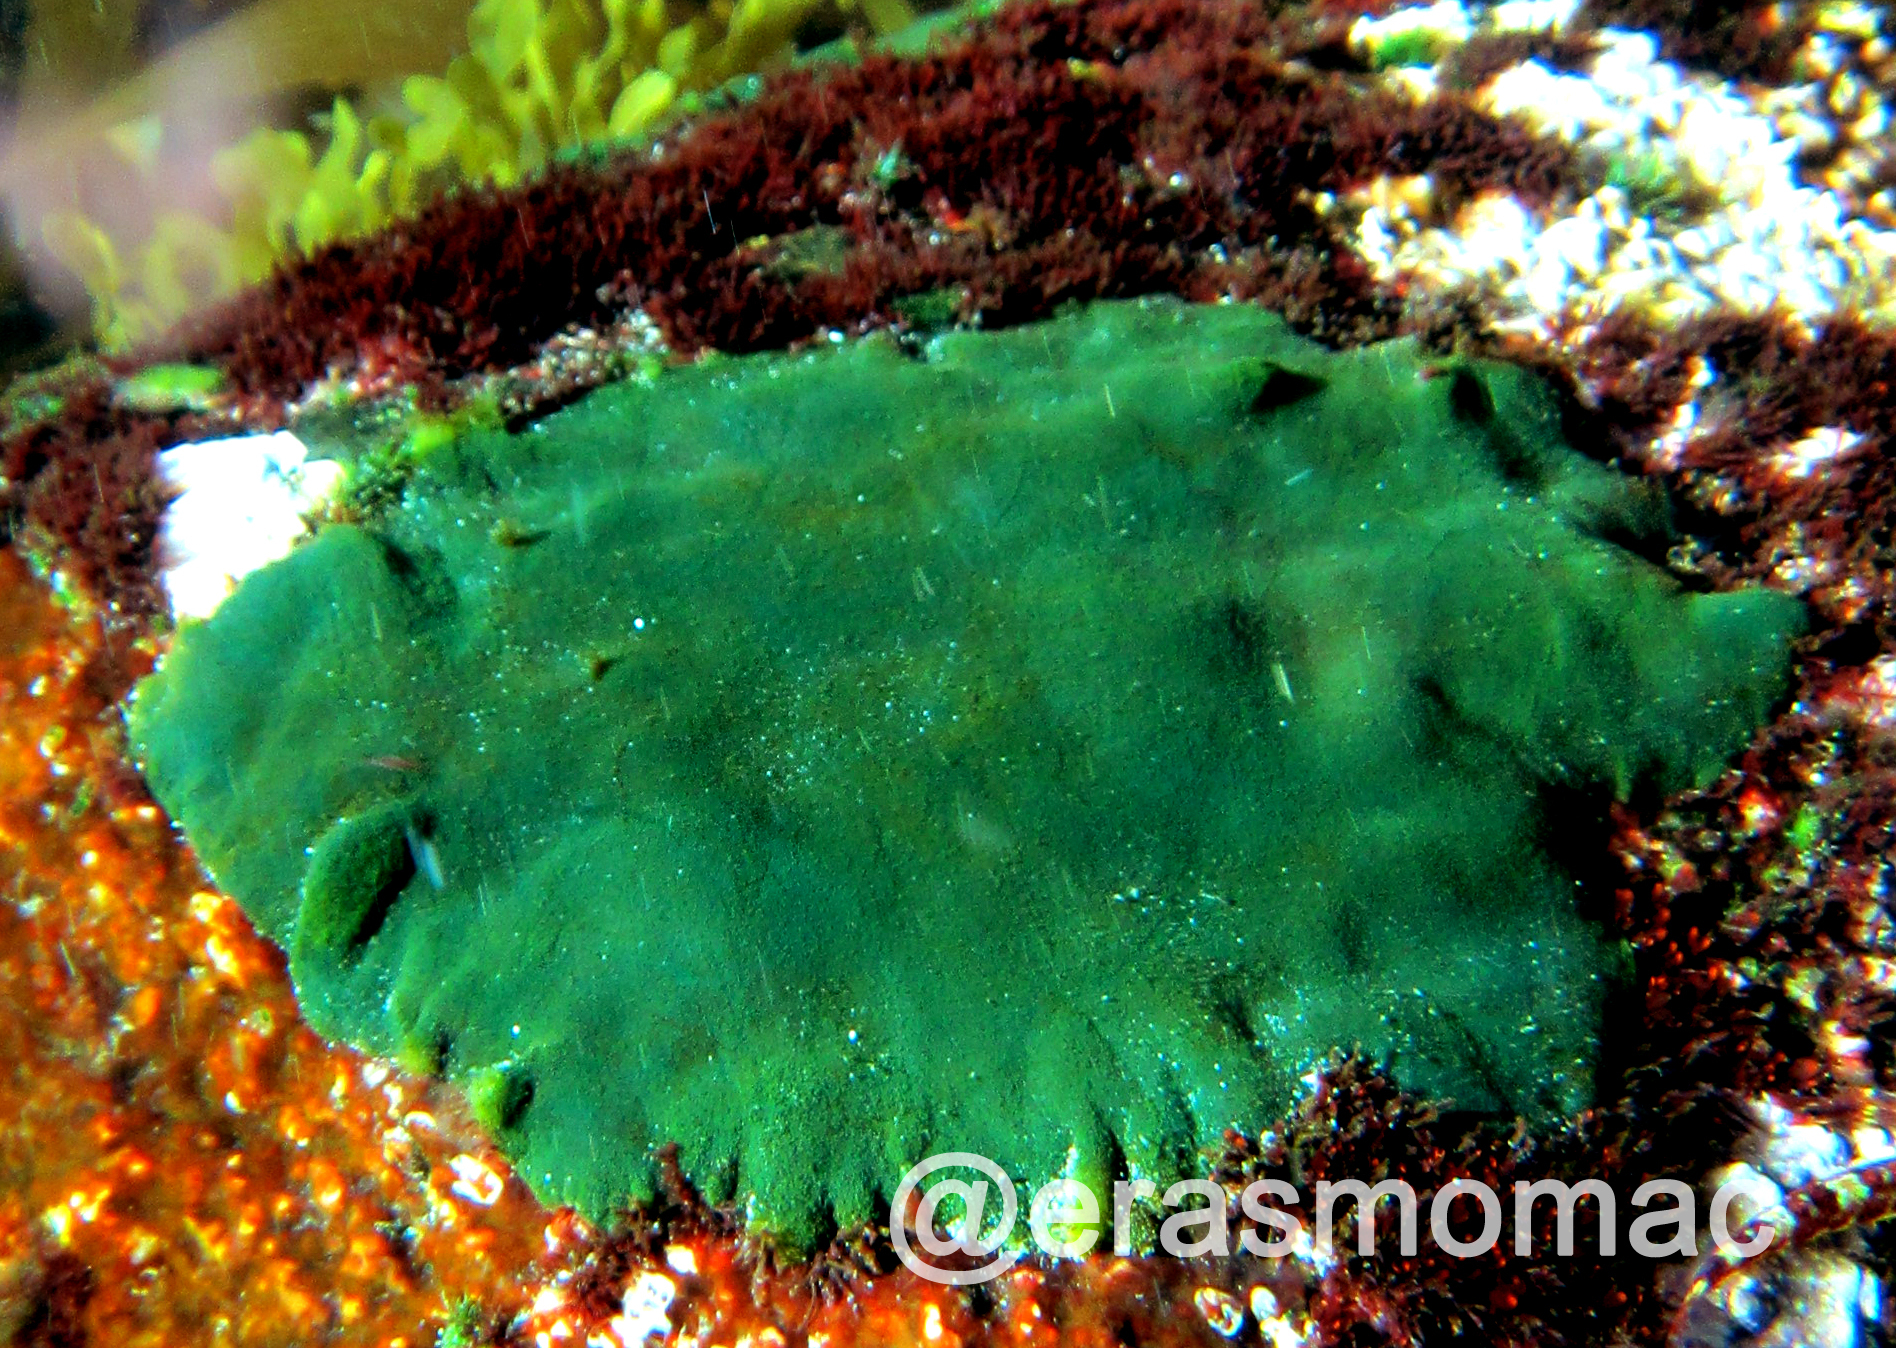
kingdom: Plantae
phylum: Chlorophyta
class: Ulvophyceae
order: Bryopsidales
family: Codiaceae
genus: Codium
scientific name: Codium
